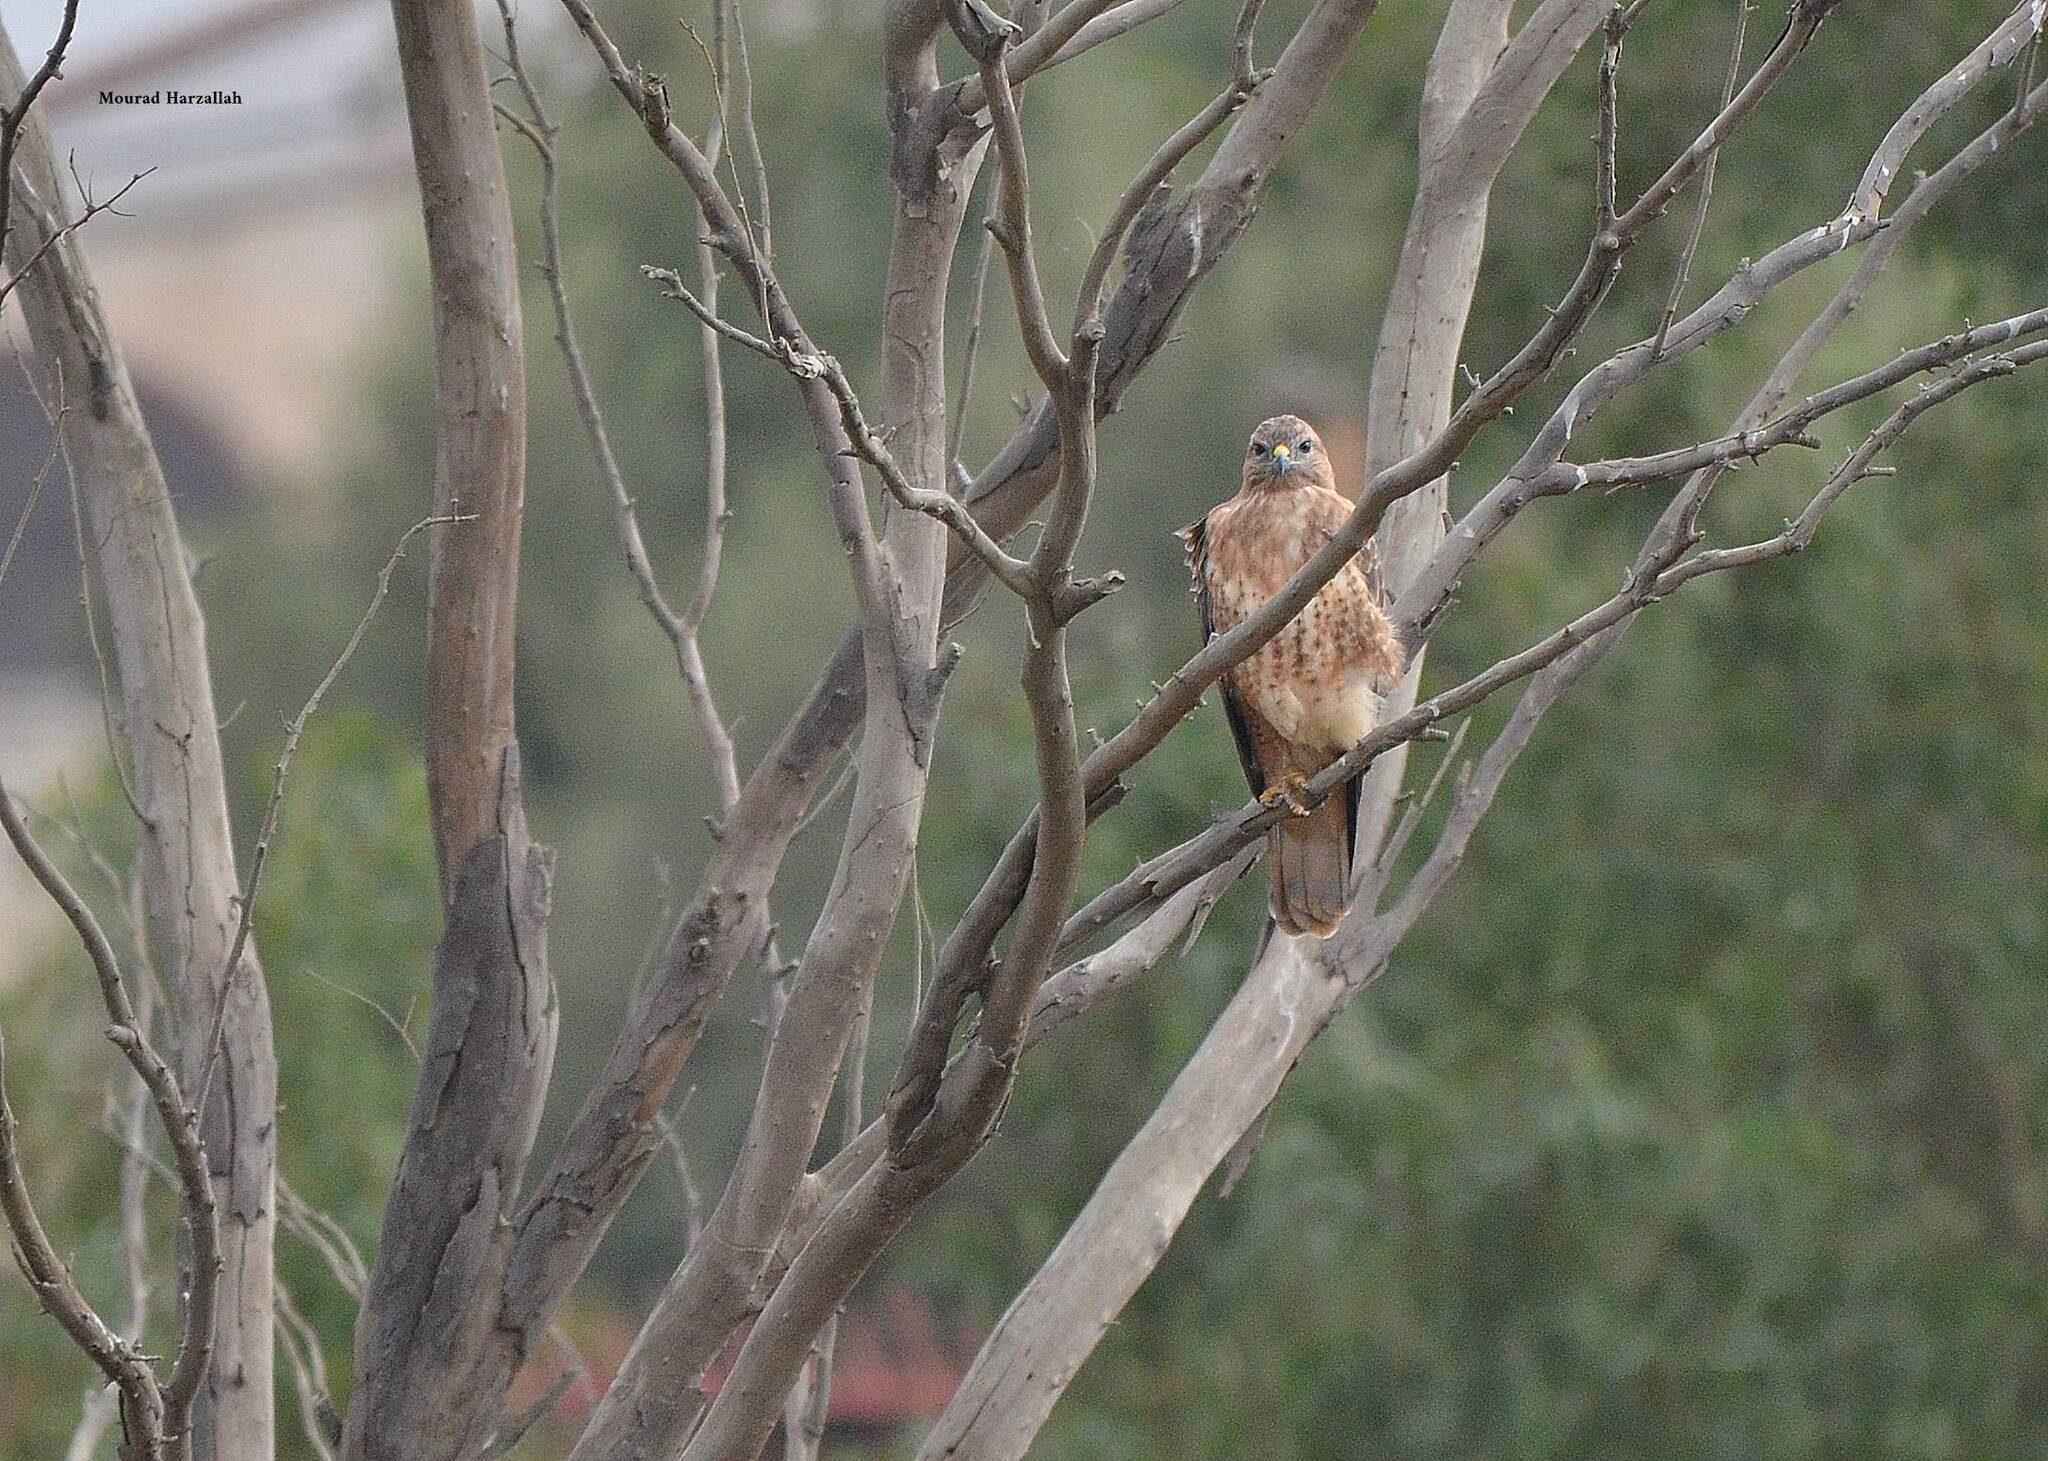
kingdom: Animalia
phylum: Chordata
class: Aves
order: Accipitriformes
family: Accipitridae
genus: Buteo
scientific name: Buteo rufinus
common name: Long-legged buzzard
